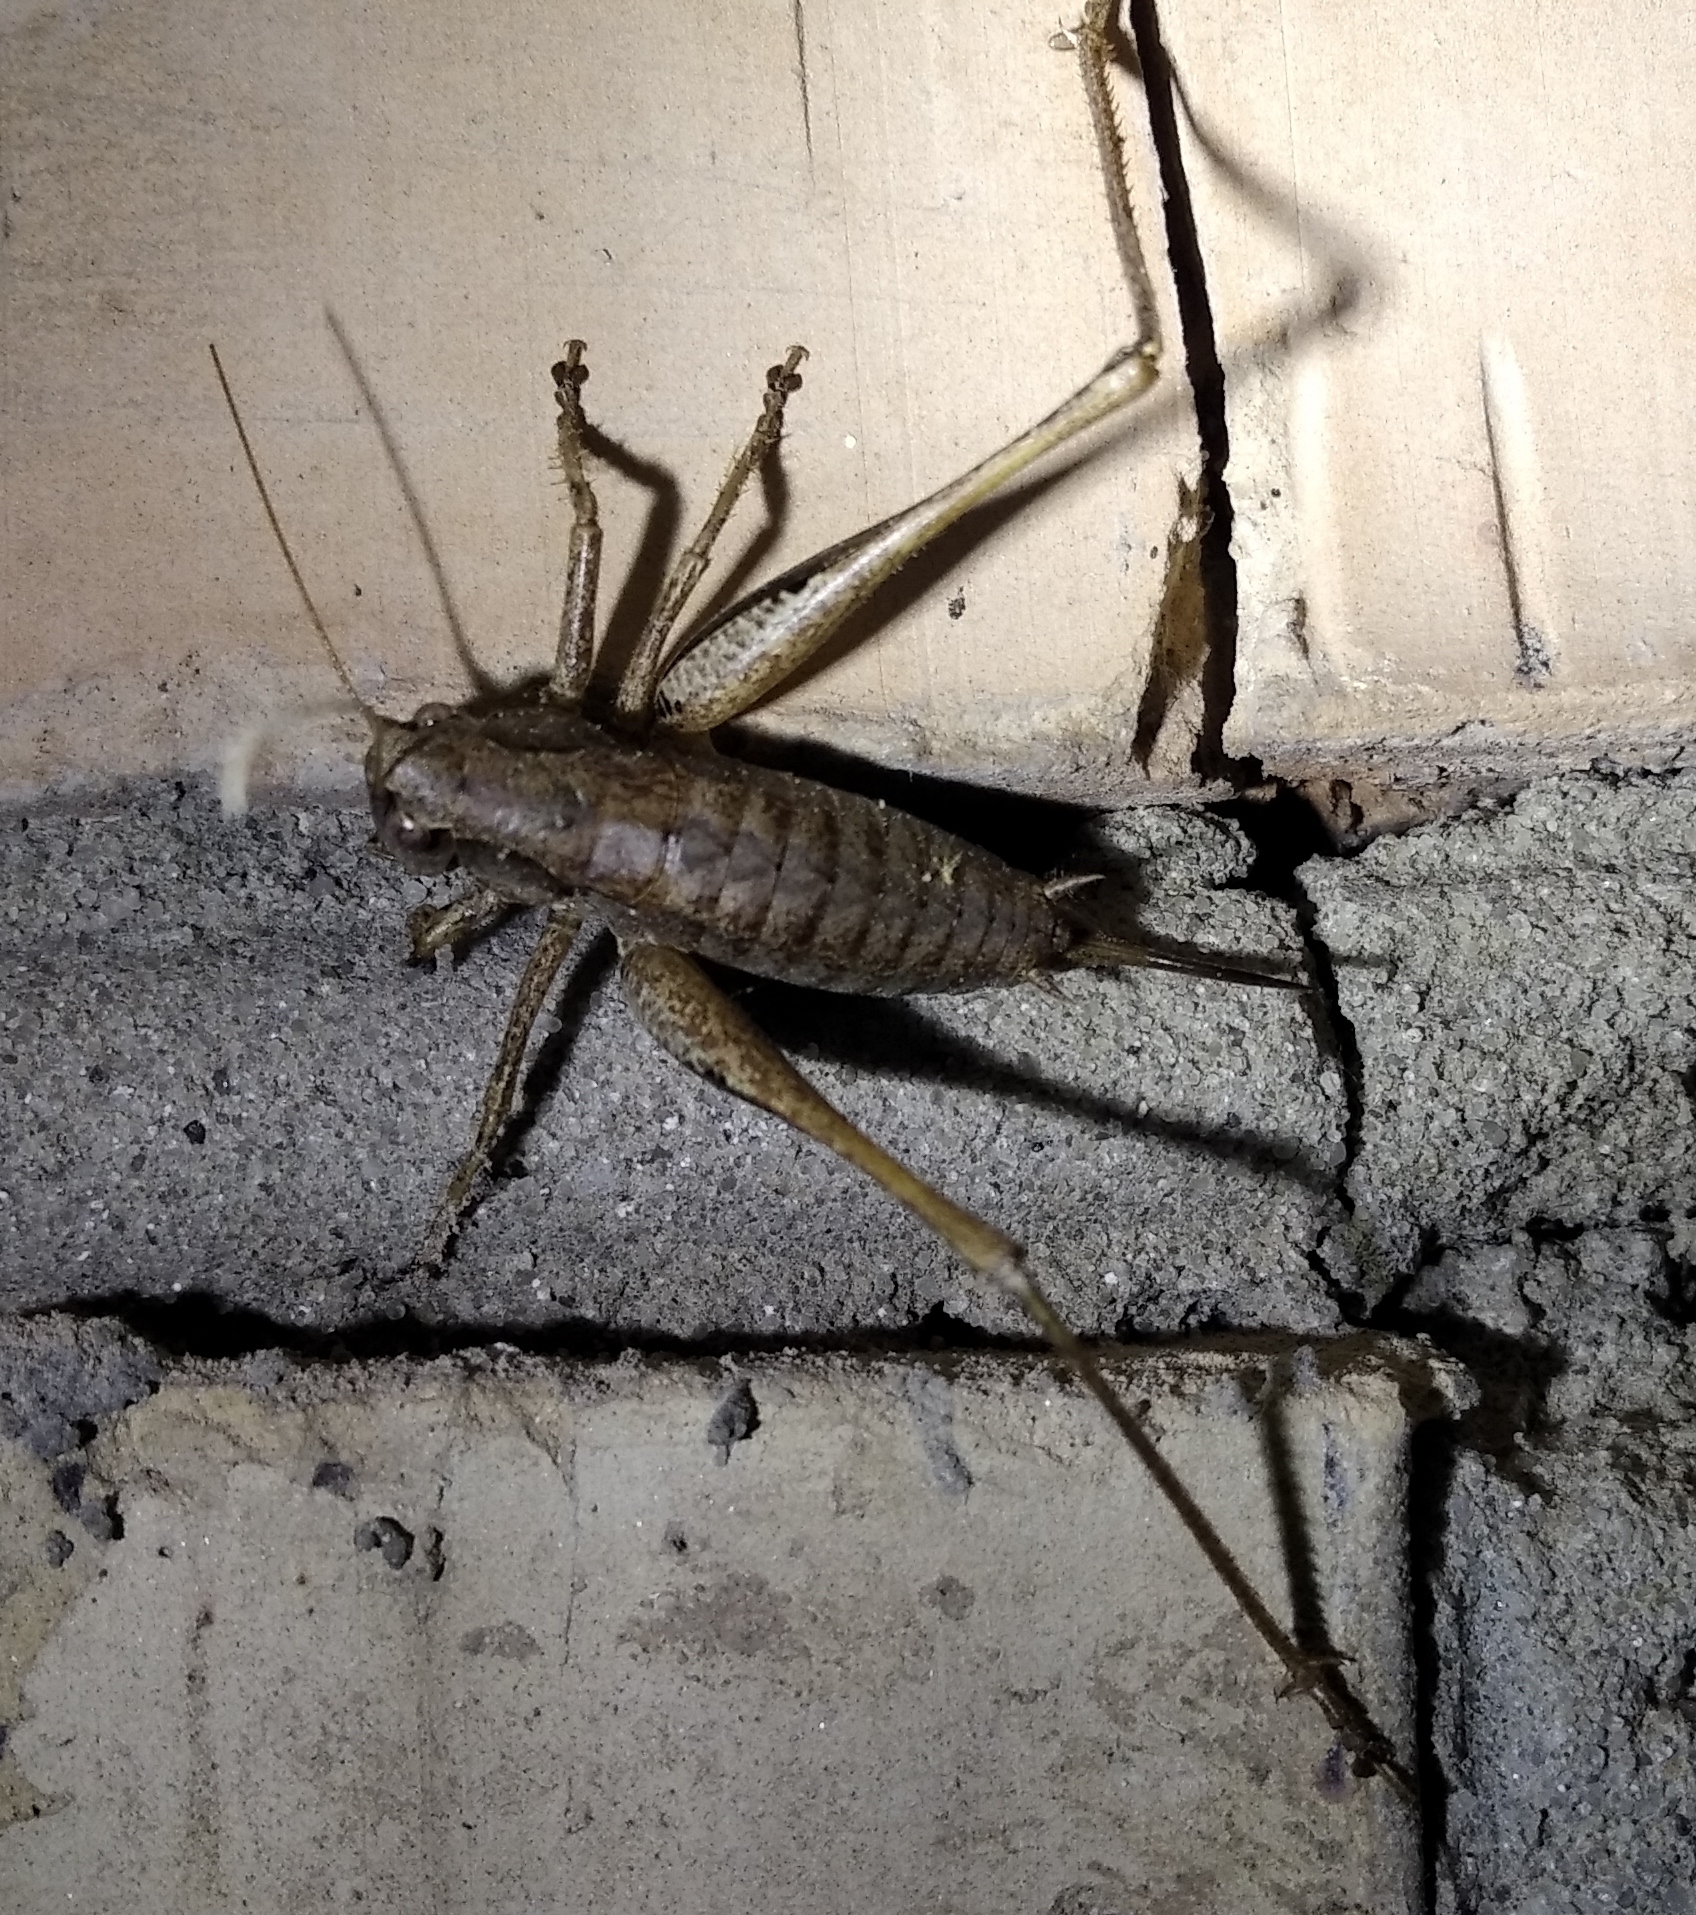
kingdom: Animalia
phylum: Arthropoda
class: Insecta
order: Orthoptera
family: Tettigoniidae
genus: Pholidoptera
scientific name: Pholidoptera griseoaptera
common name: Dark bush-cricket
